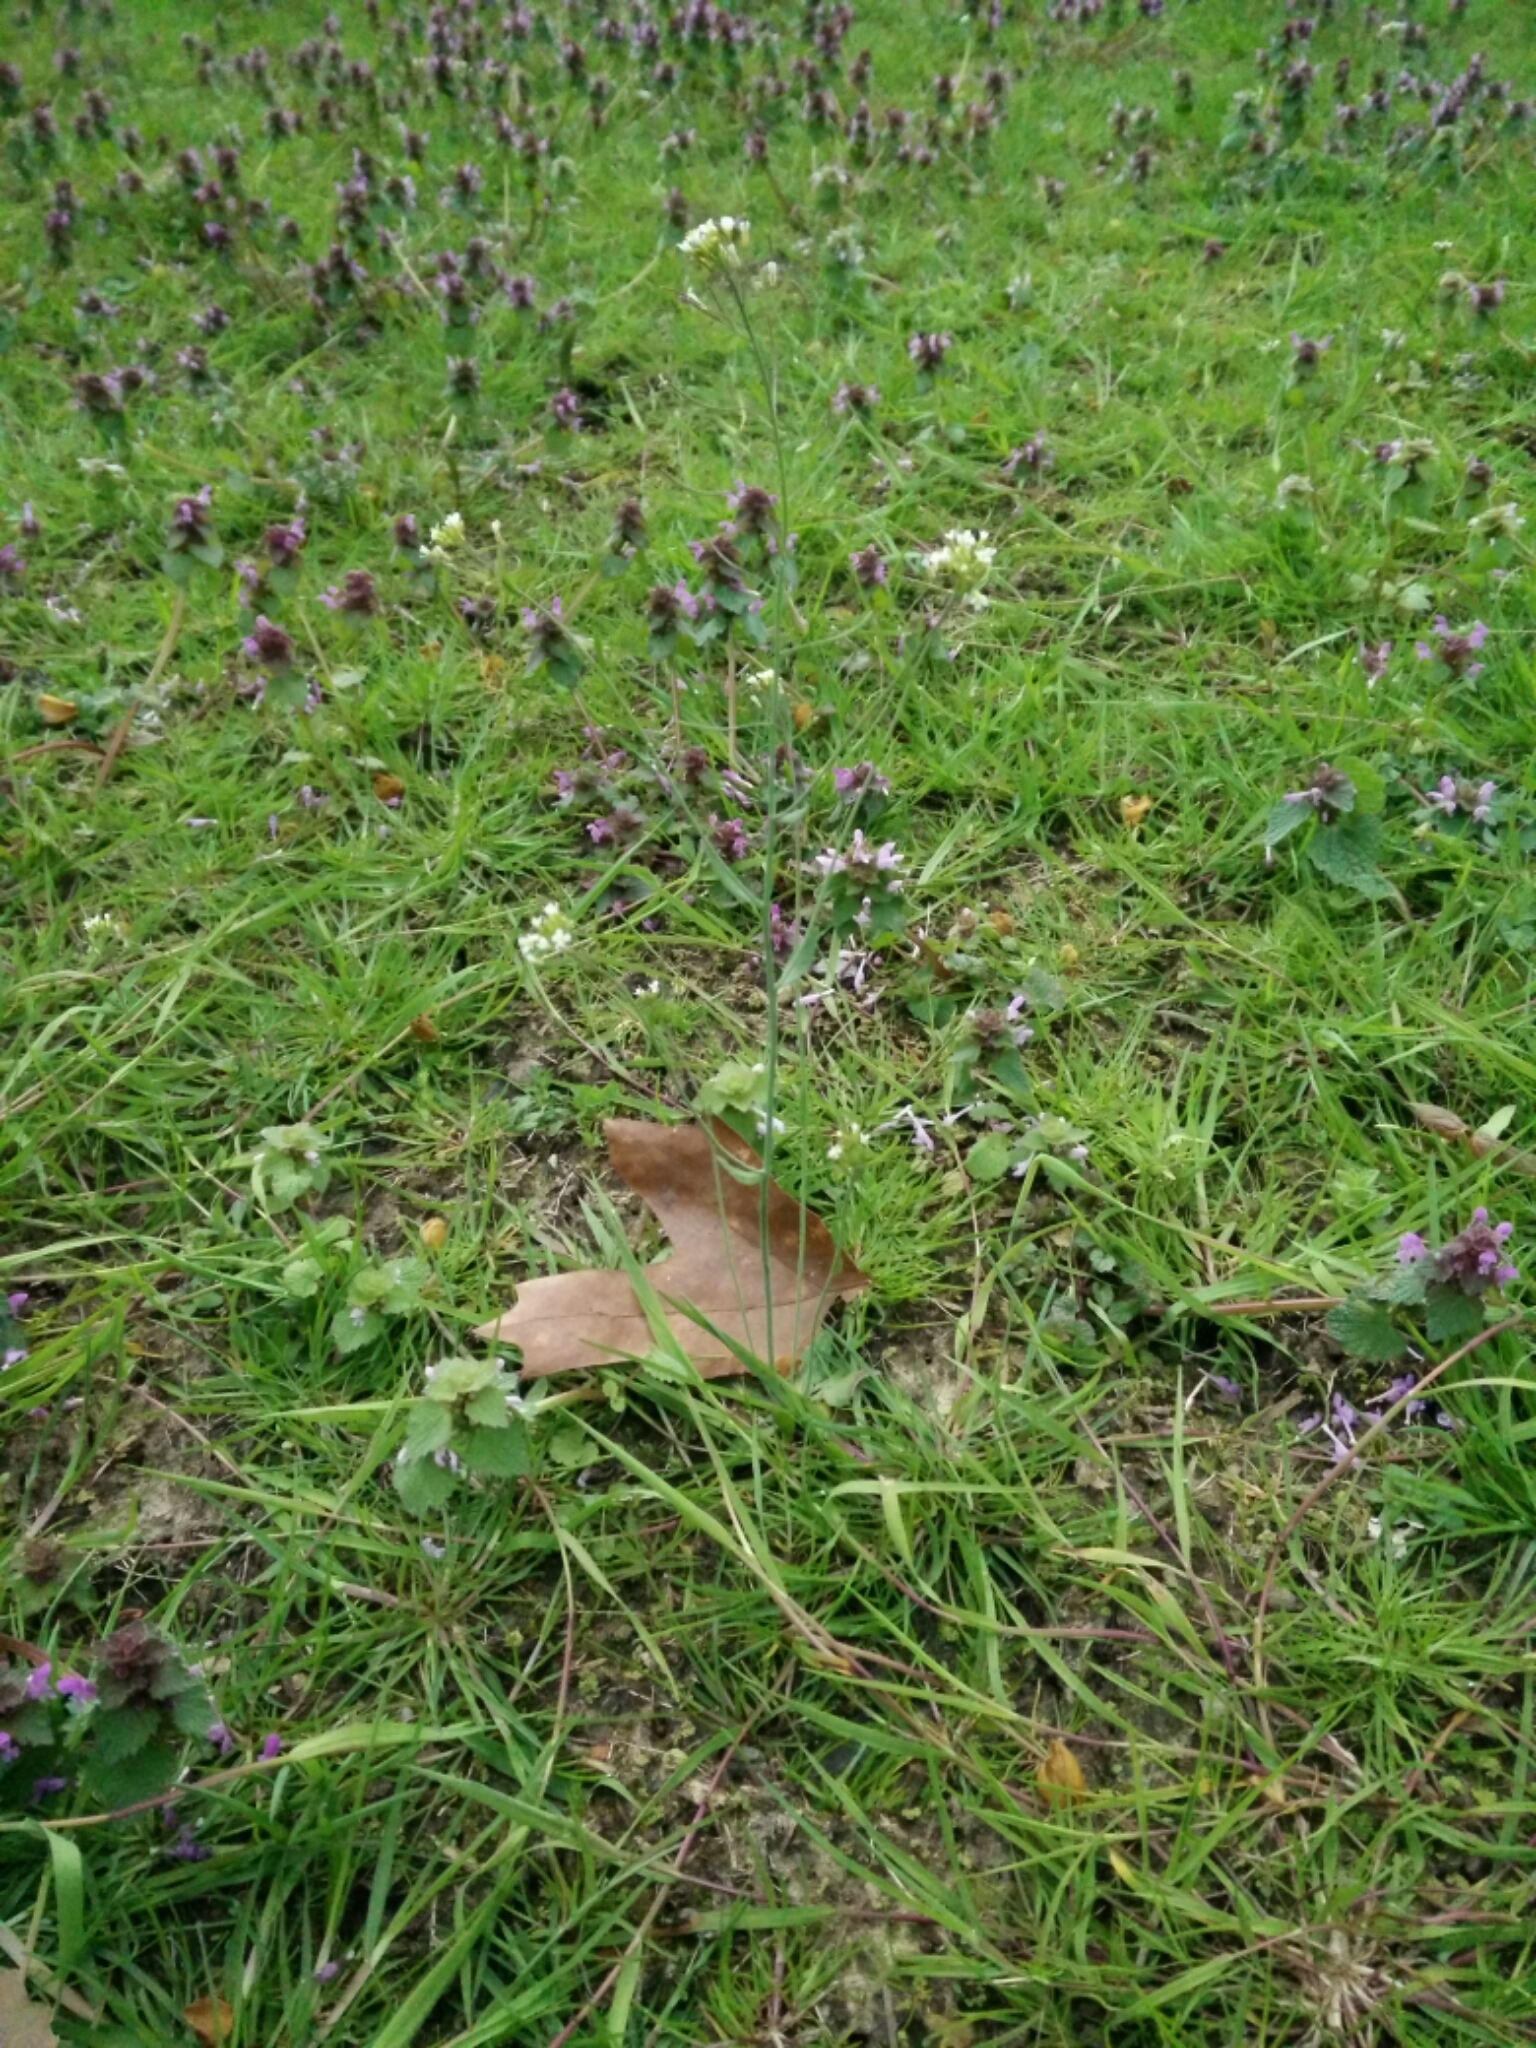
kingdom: Plantae
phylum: Tracheophyta
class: Magnoliopsida
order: Brassicales
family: Brassicaceae
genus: Arabidopsis
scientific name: Arabidopsis thaliana
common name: Thale cress
